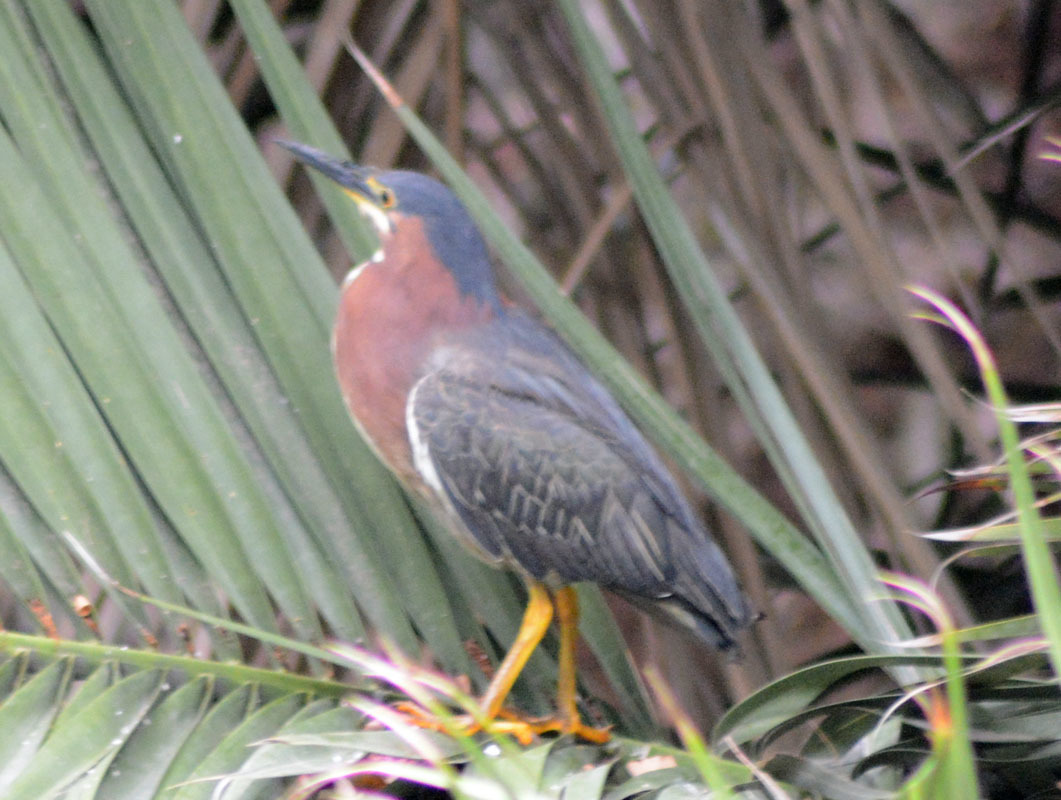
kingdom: Animalia
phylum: Chordata
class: Aves
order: Pelecaniformes
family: Ardeidae
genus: Butorides
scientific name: Butorides virescens
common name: Green heron
